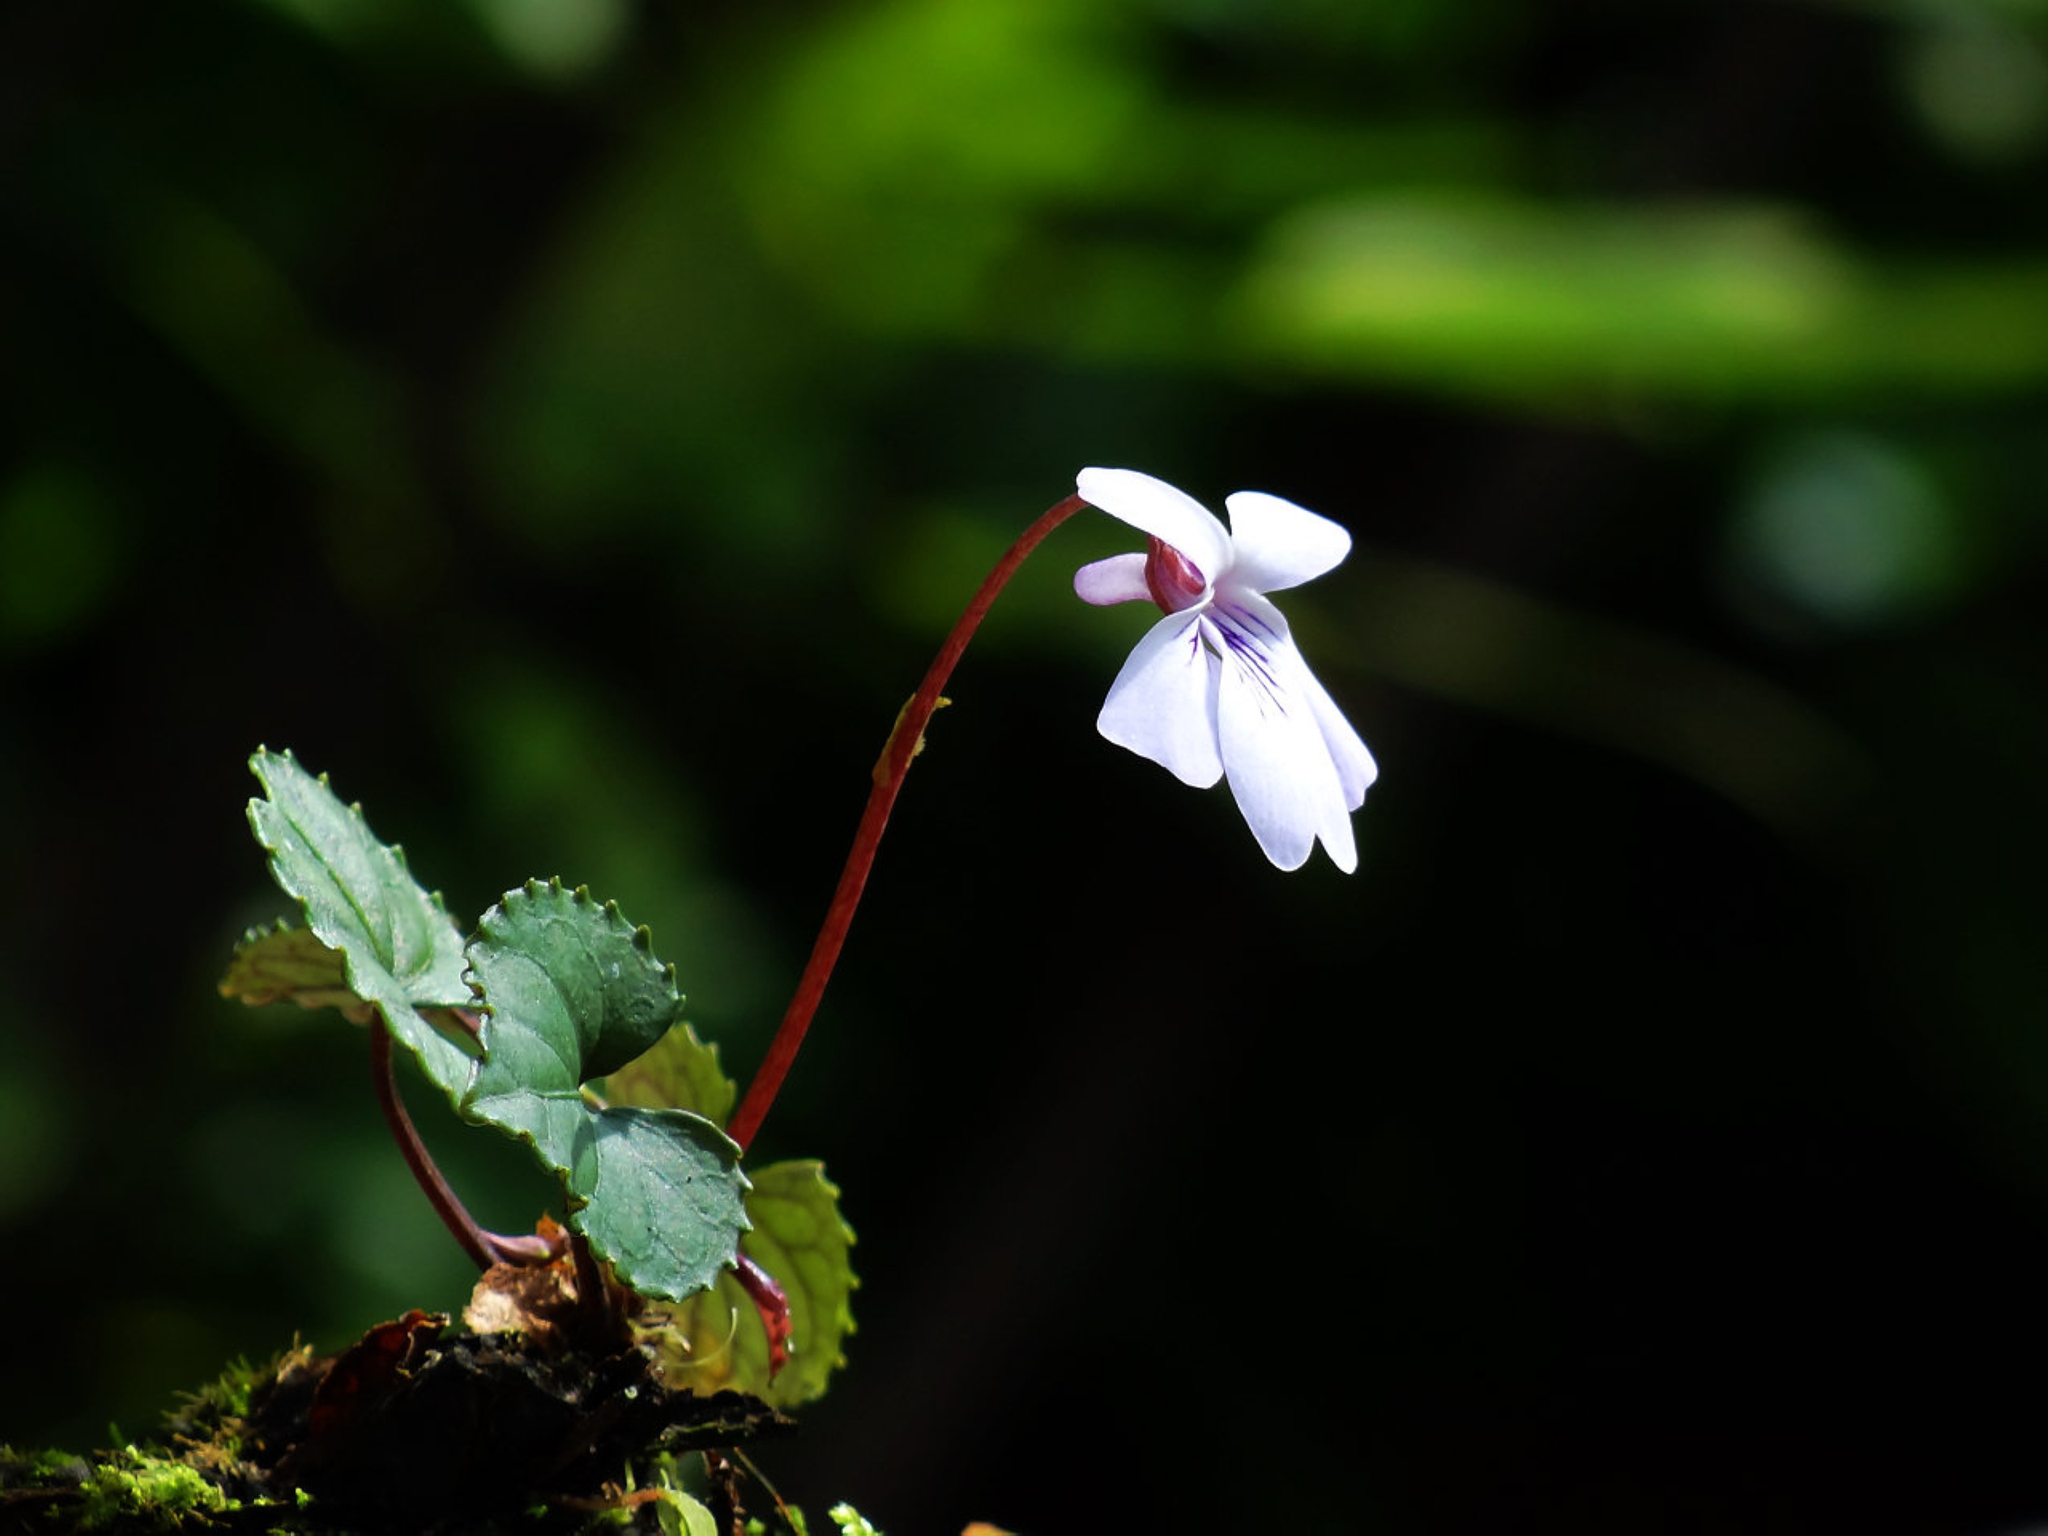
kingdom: Plantae
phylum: Tracheophyta
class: Magnoliopsida
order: Malpighiales
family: Violaceae
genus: Viola
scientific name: Viola formosana
